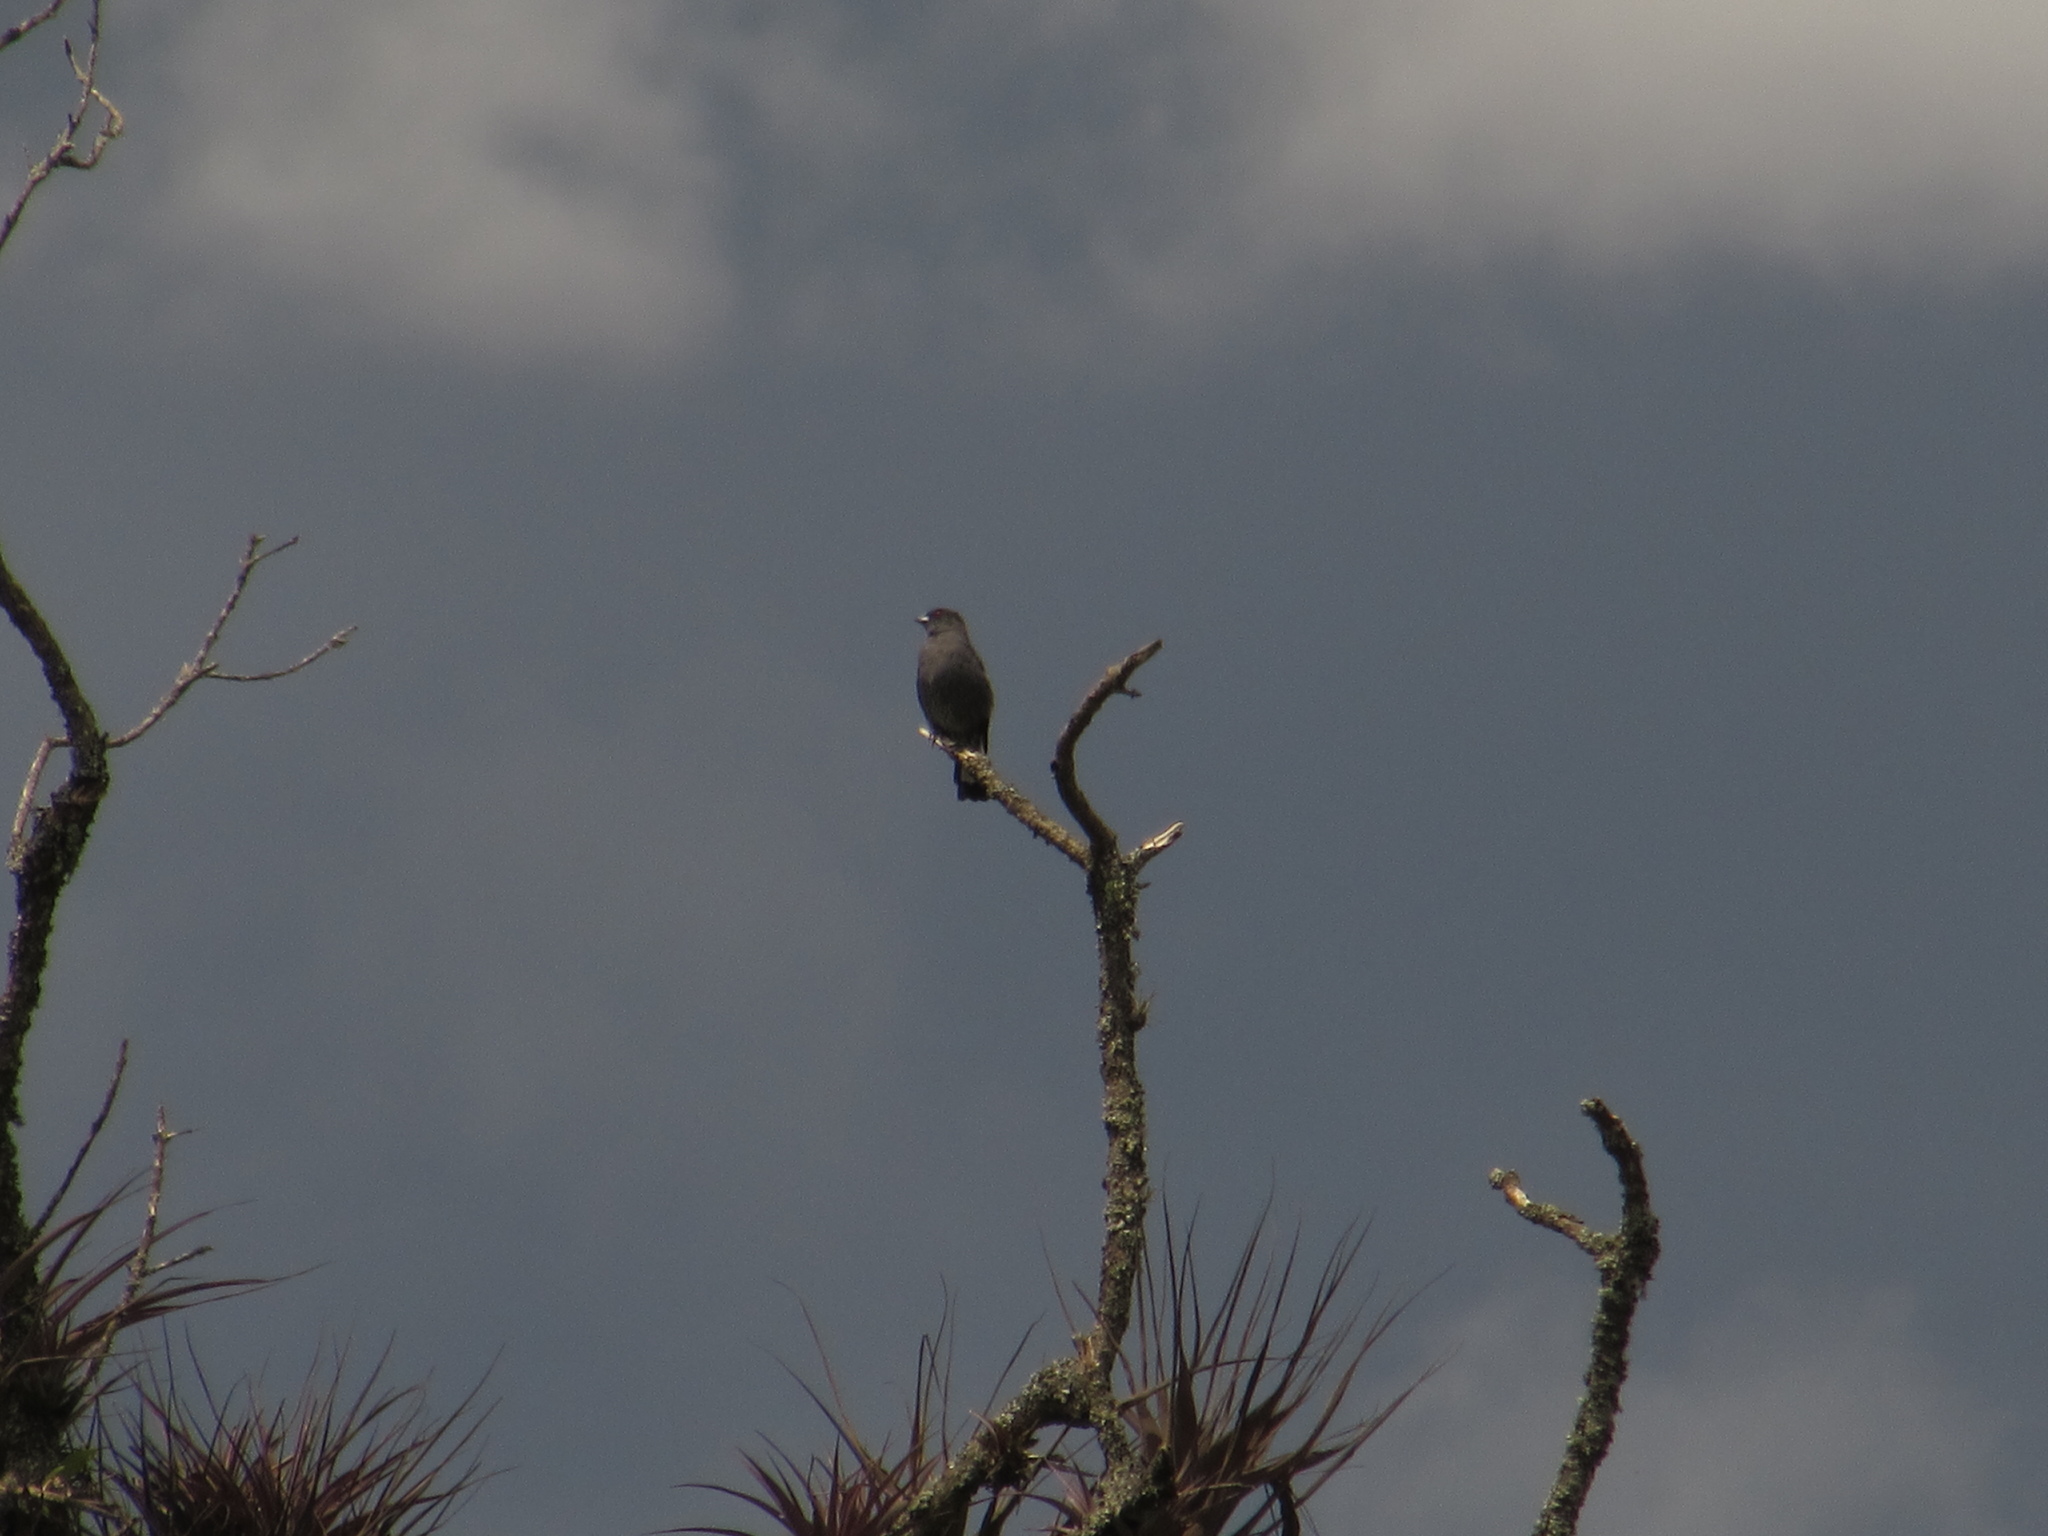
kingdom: Animalia
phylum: Chordata
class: Aves
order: Passeriformes
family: Cotingidae
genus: Ampelion
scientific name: Ampelion rubrocristatus
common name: Red-crested cotinga
